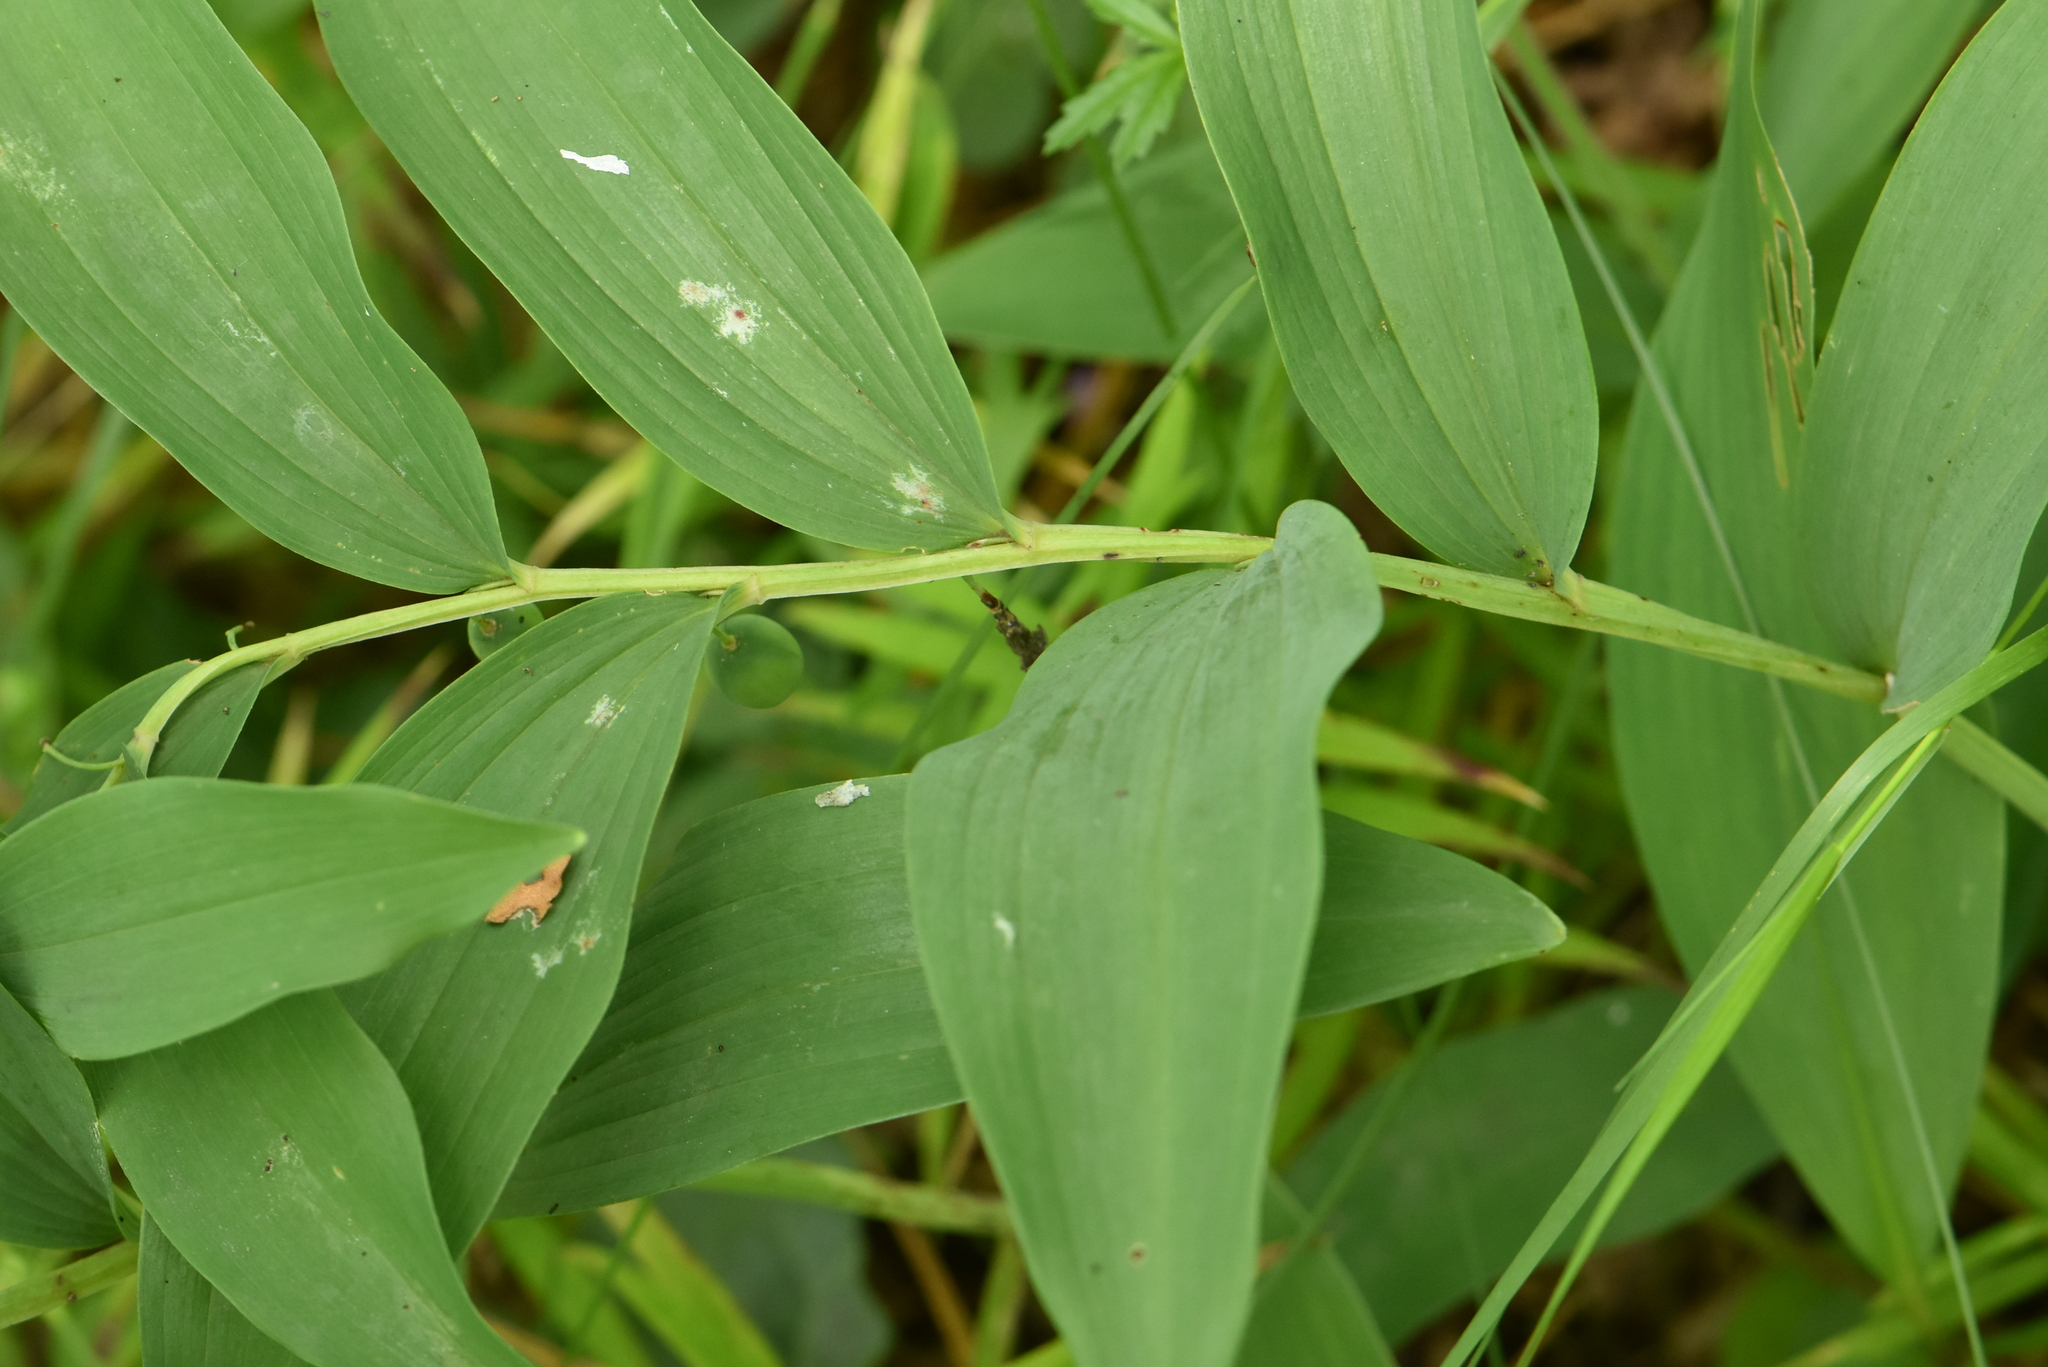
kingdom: Plantae
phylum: Tracheophyta
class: Liliopsida
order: Asparagales
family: Asparagaceae
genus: Polygonatum
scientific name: Polygonatum odoratum
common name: Angular solomon's-seal
